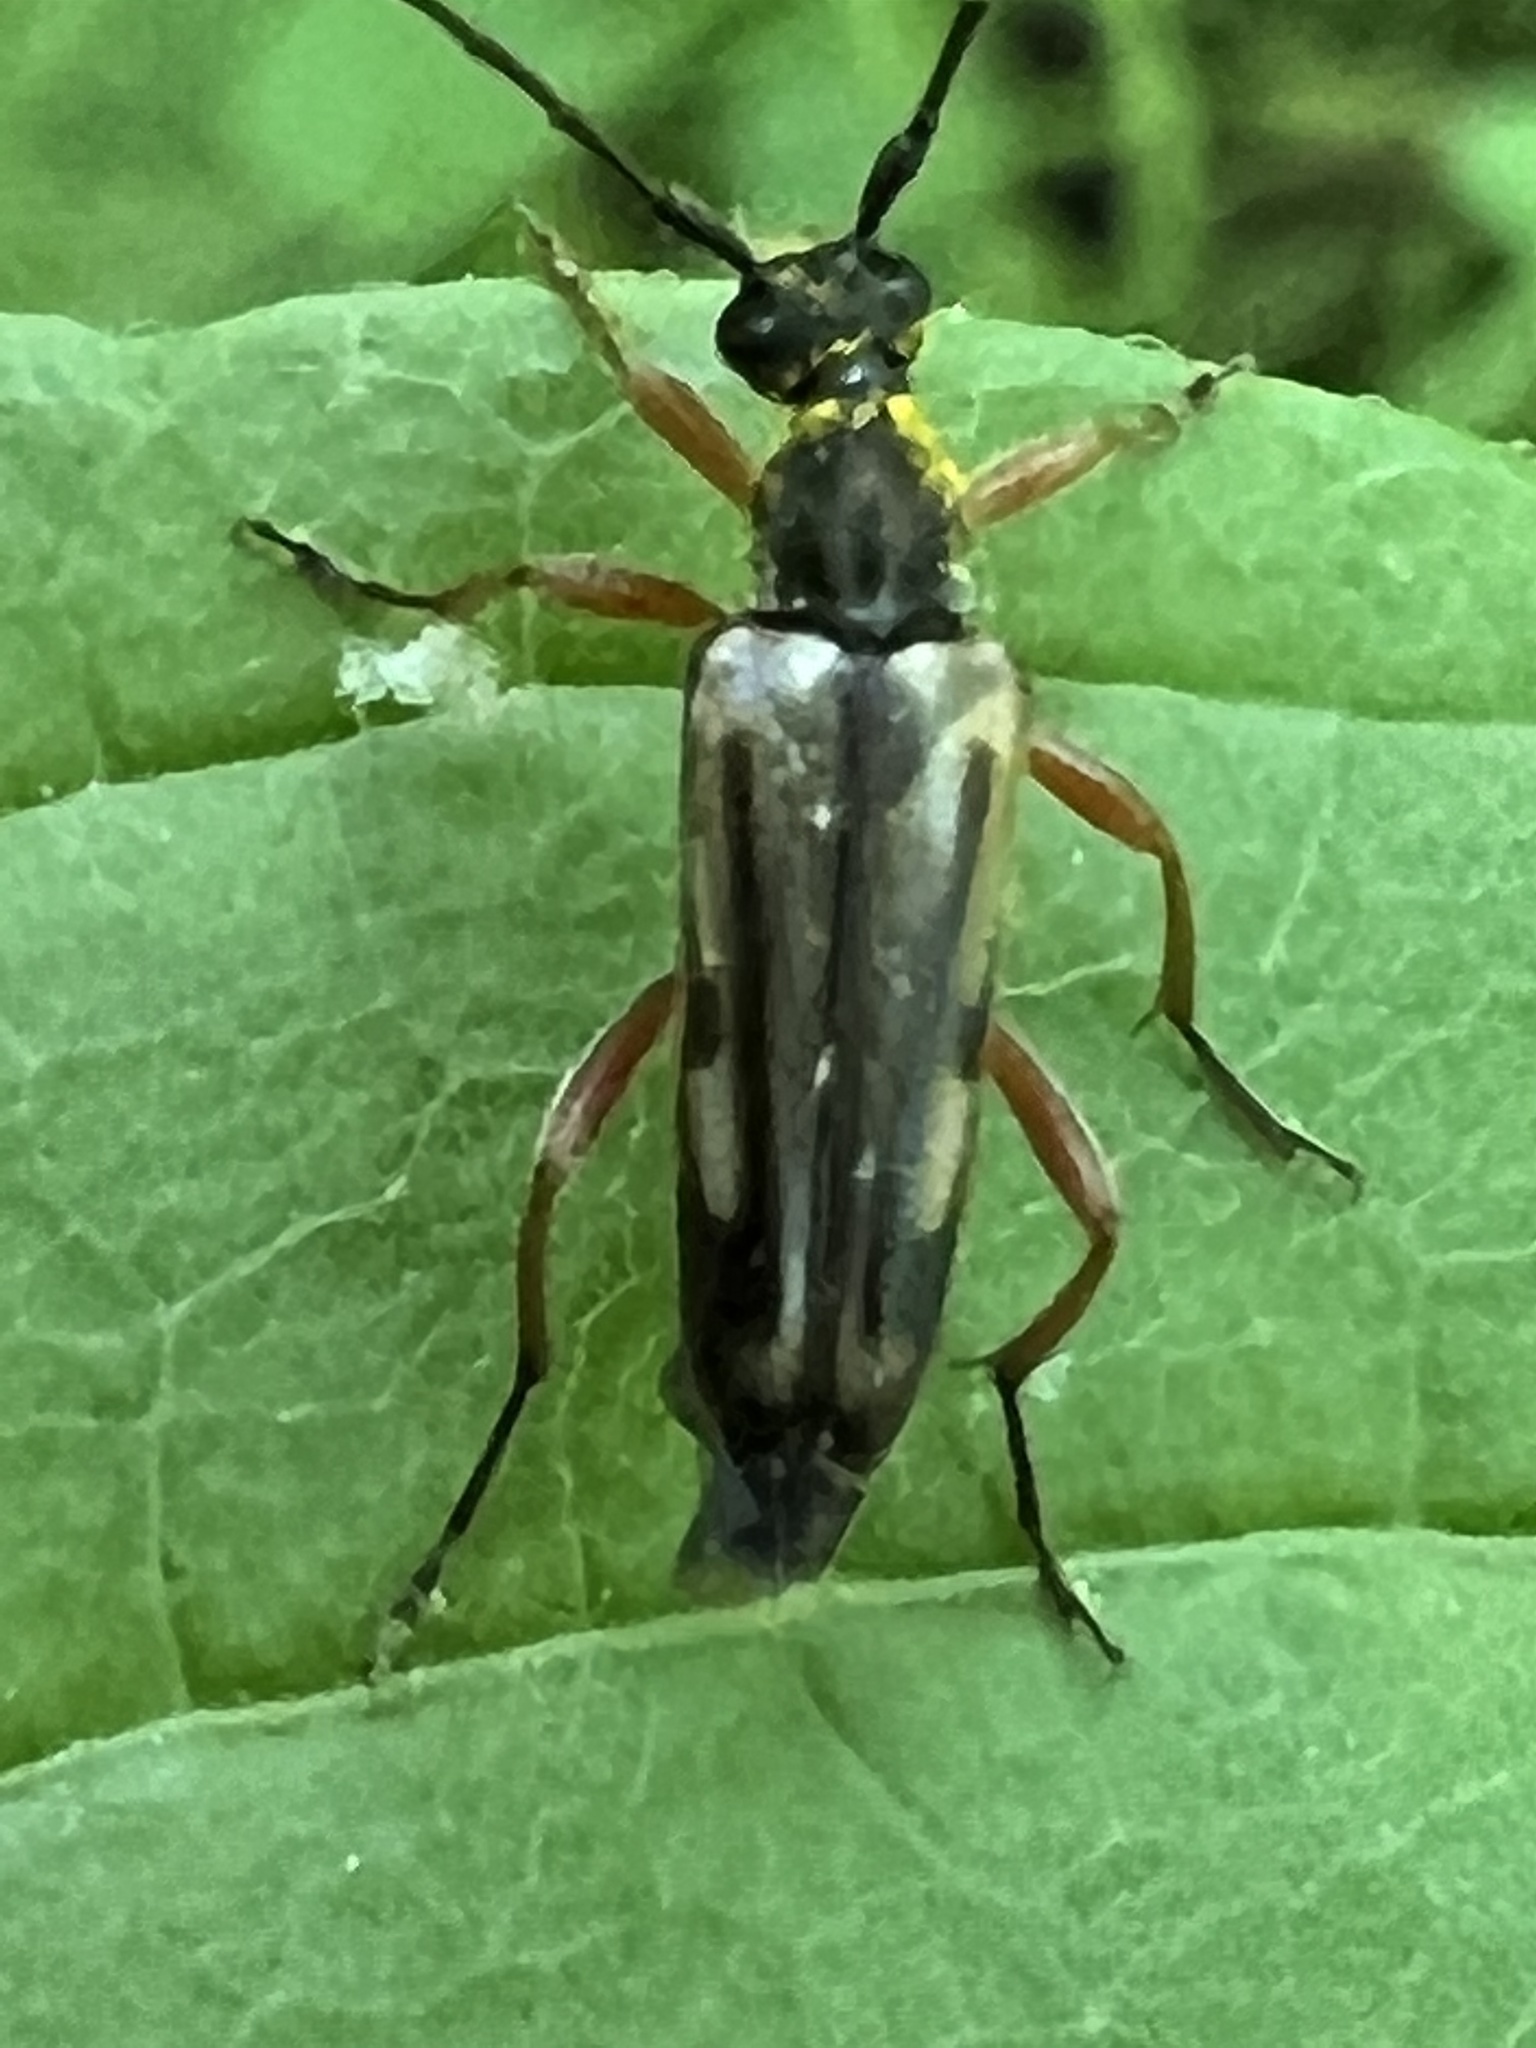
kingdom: Animalia
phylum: Arthropoda
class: Insecta
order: Coleoptera
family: Cerambycidae
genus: Analeptura
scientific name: Analeptura lineola
